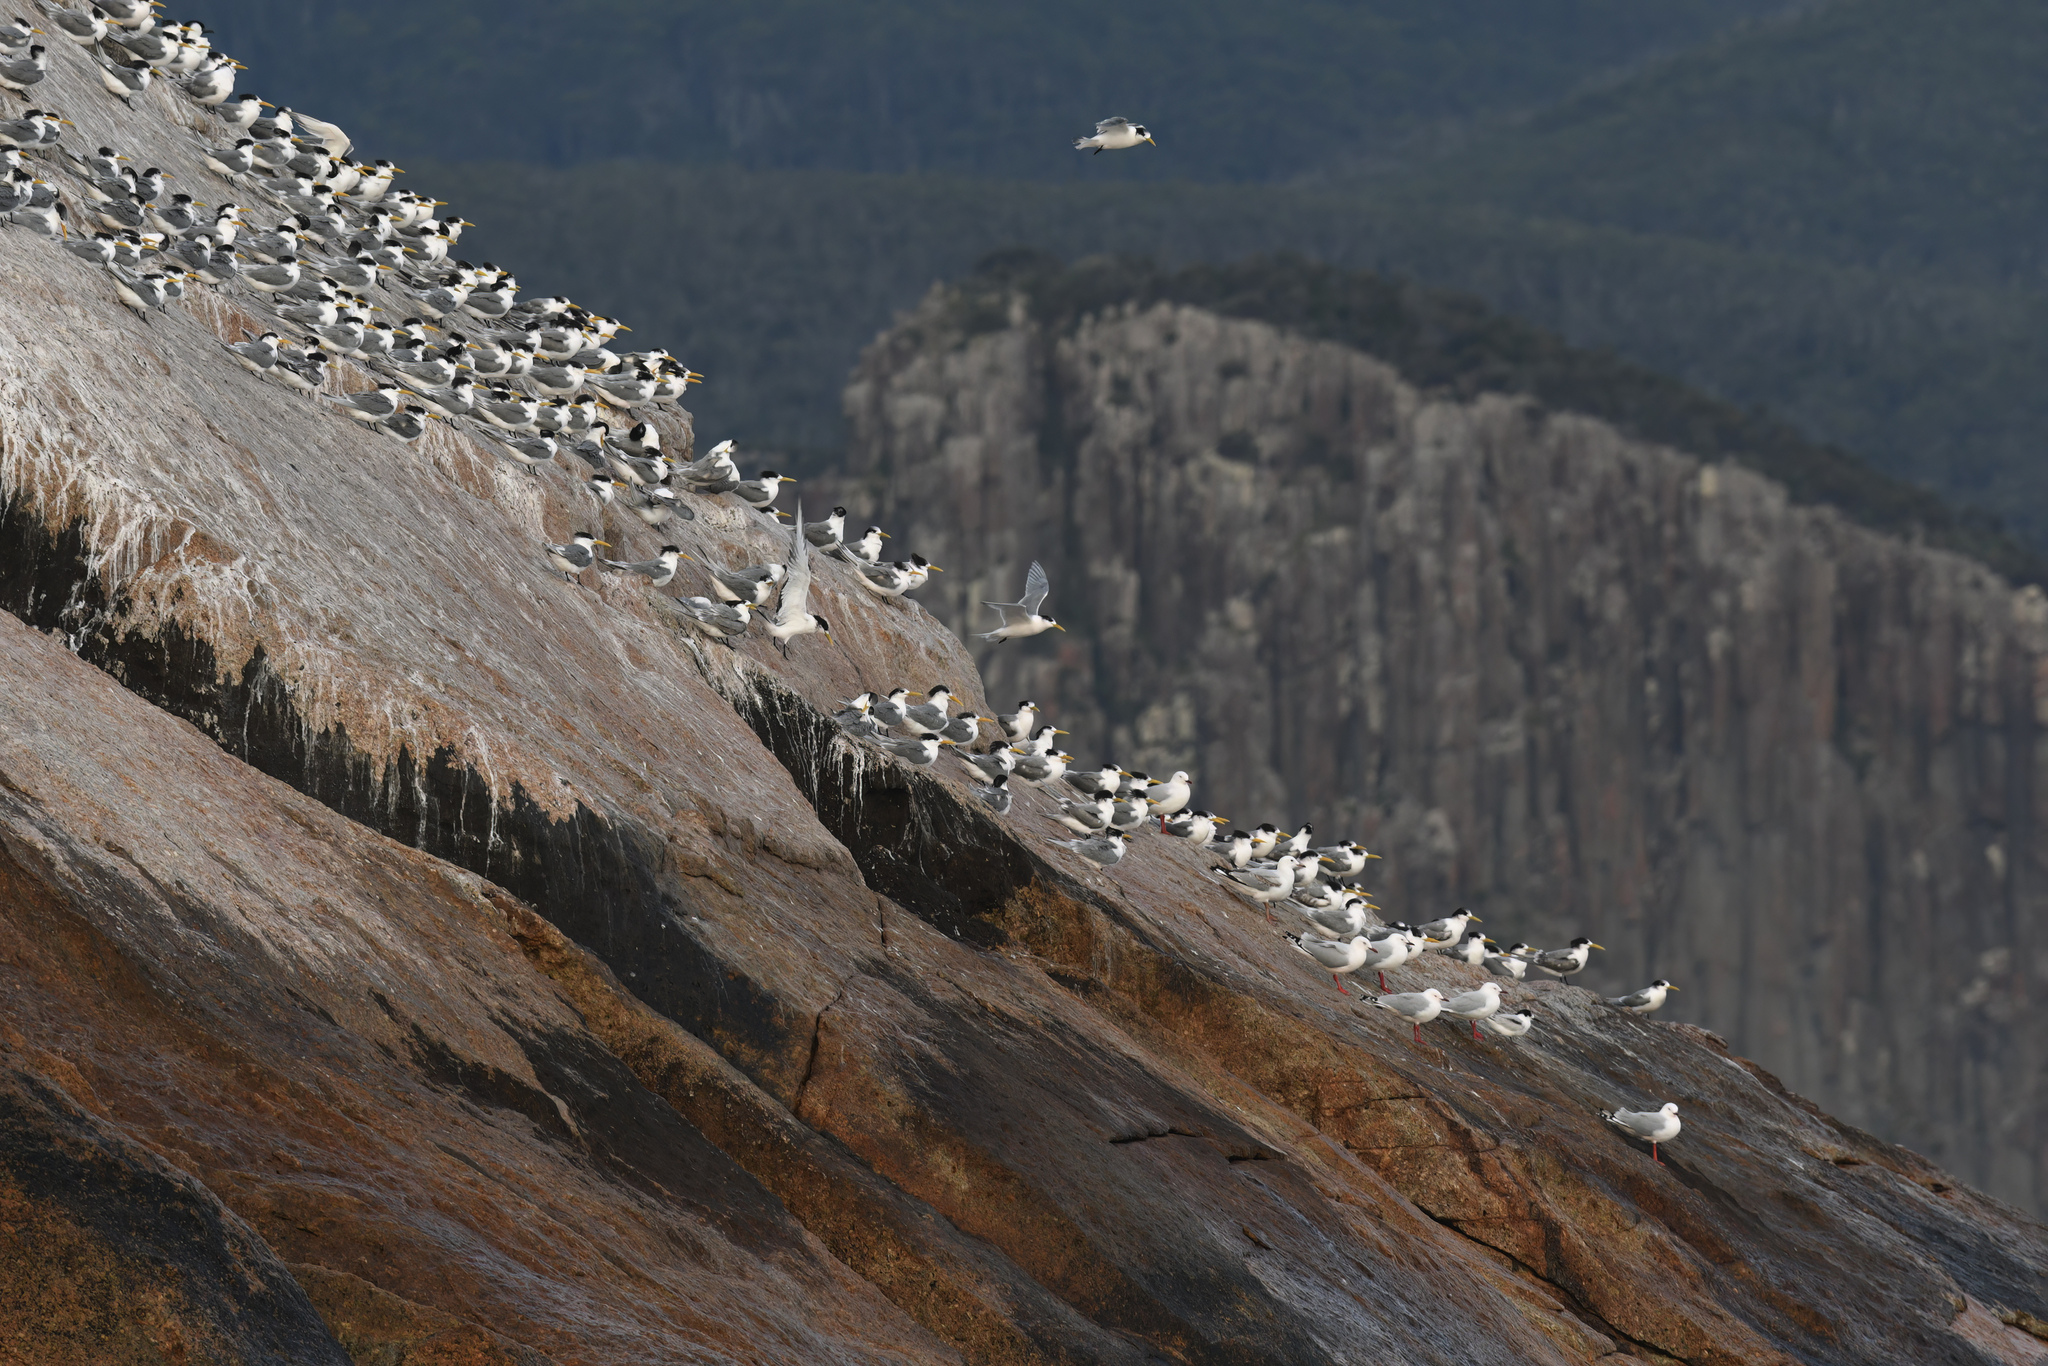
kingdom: Animalia
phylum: Chordata
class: Aves
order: Charadriiformes
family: Laridae
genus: Thalasseus
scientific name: Thalasseus bergii
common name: Greater crested tern
